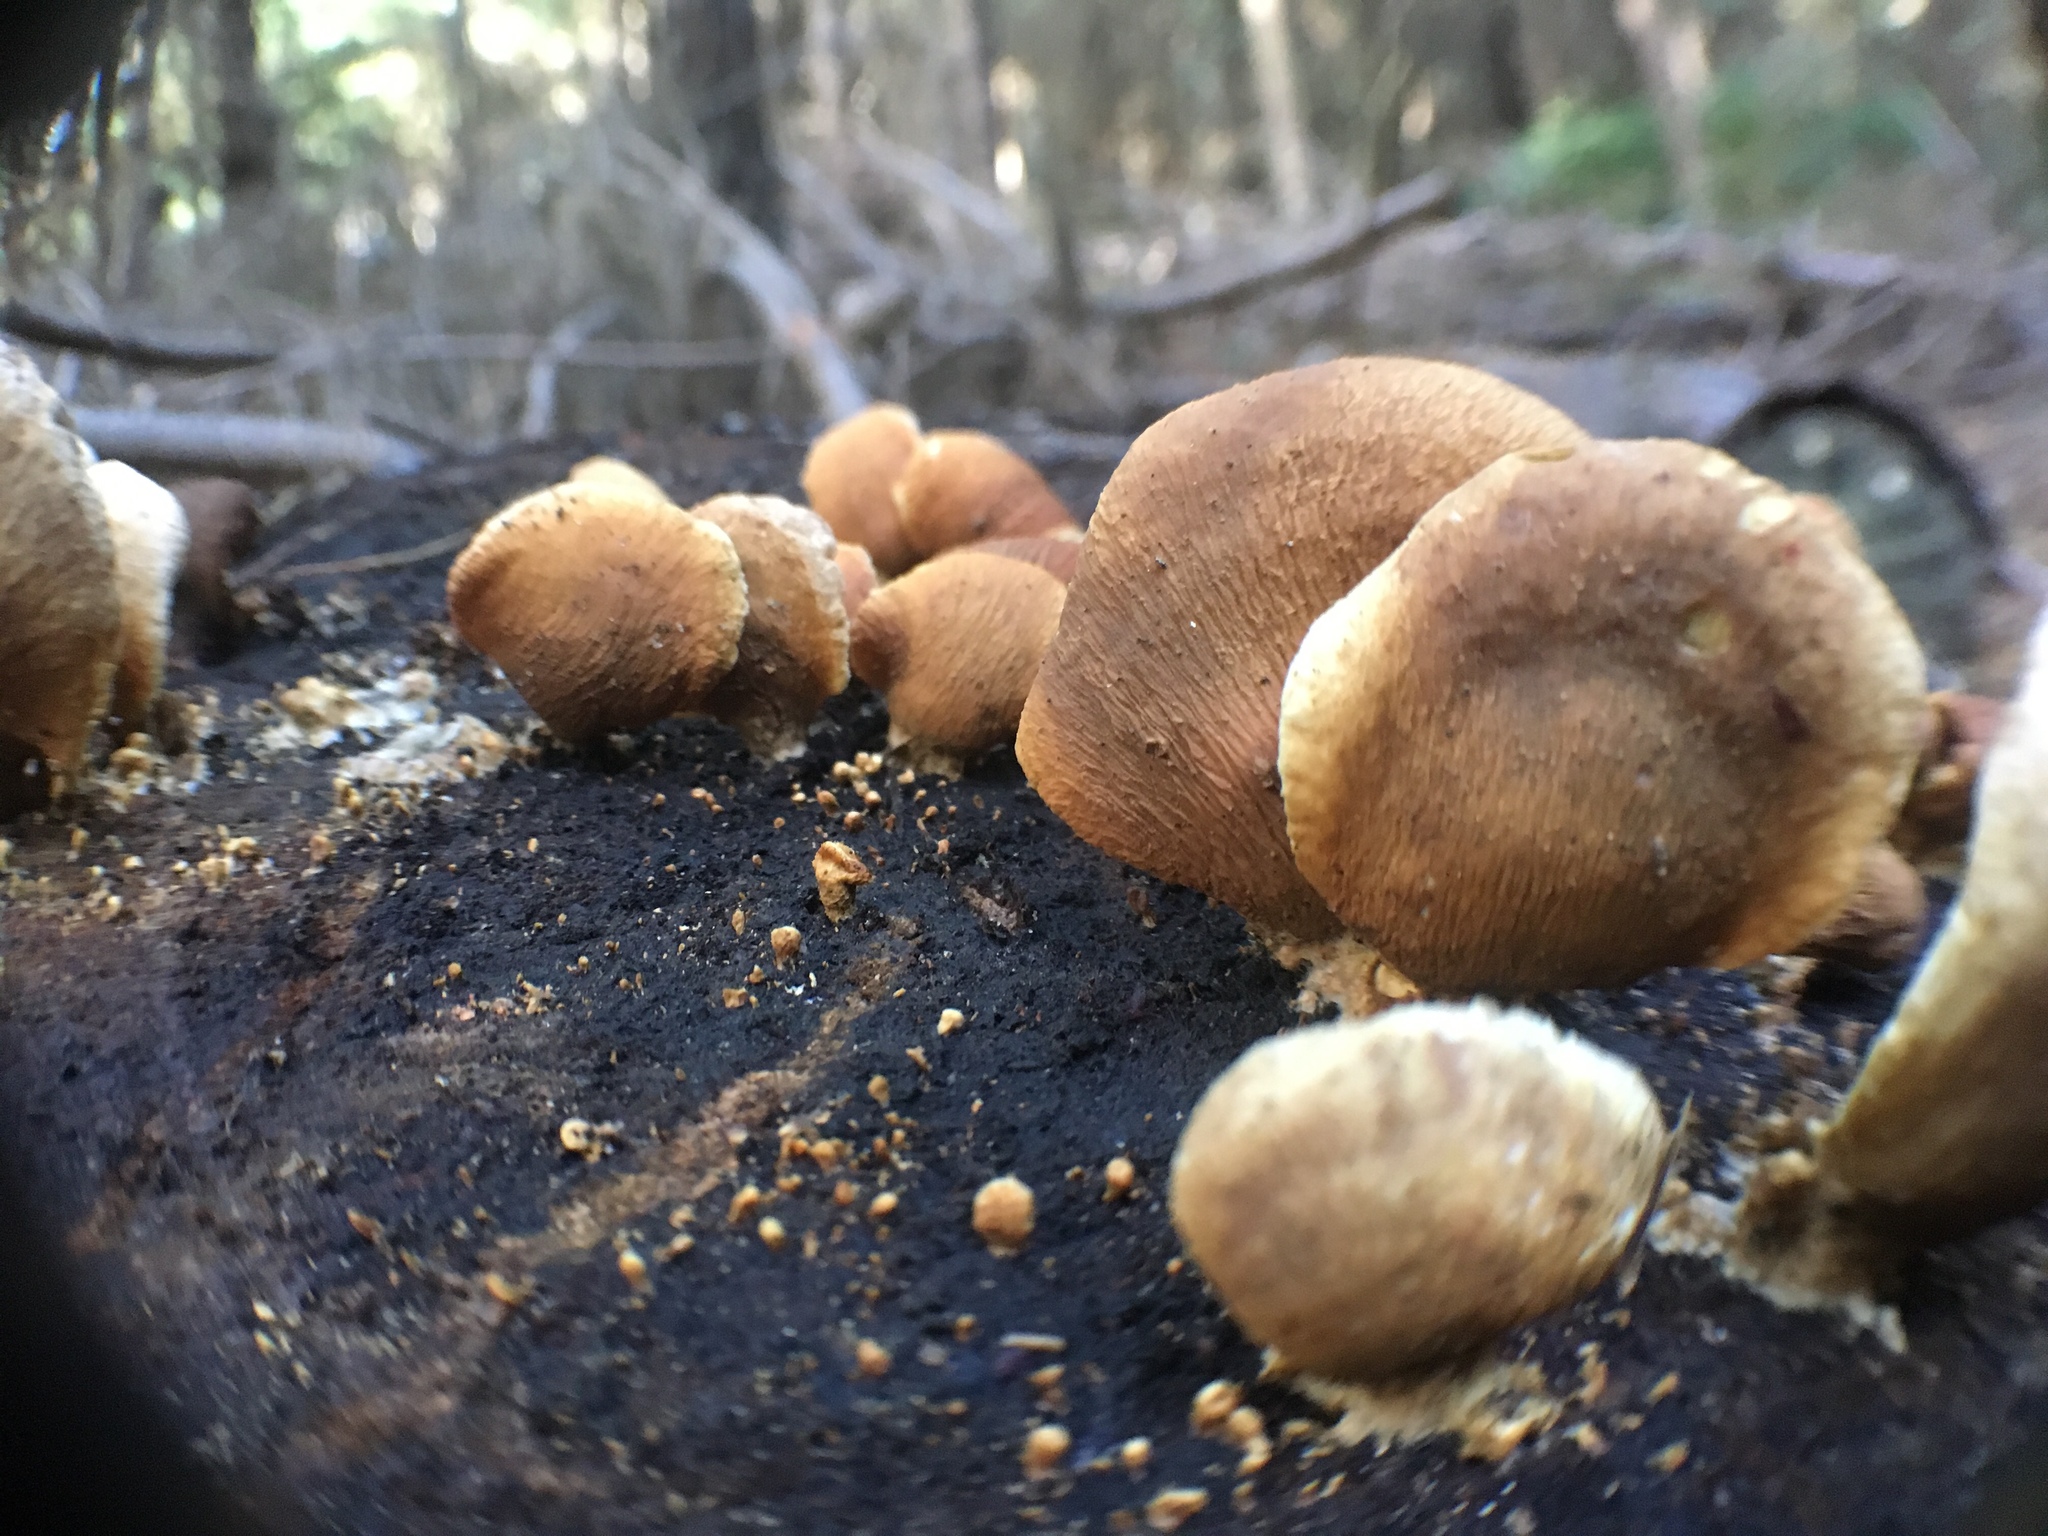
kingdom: Fungi
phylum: Basidiomycota
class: Agaricomycetes
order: Agaricales
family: Mycenaceae
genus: Panellus
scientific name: Panellus stipticus
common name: Bitter oysterling
